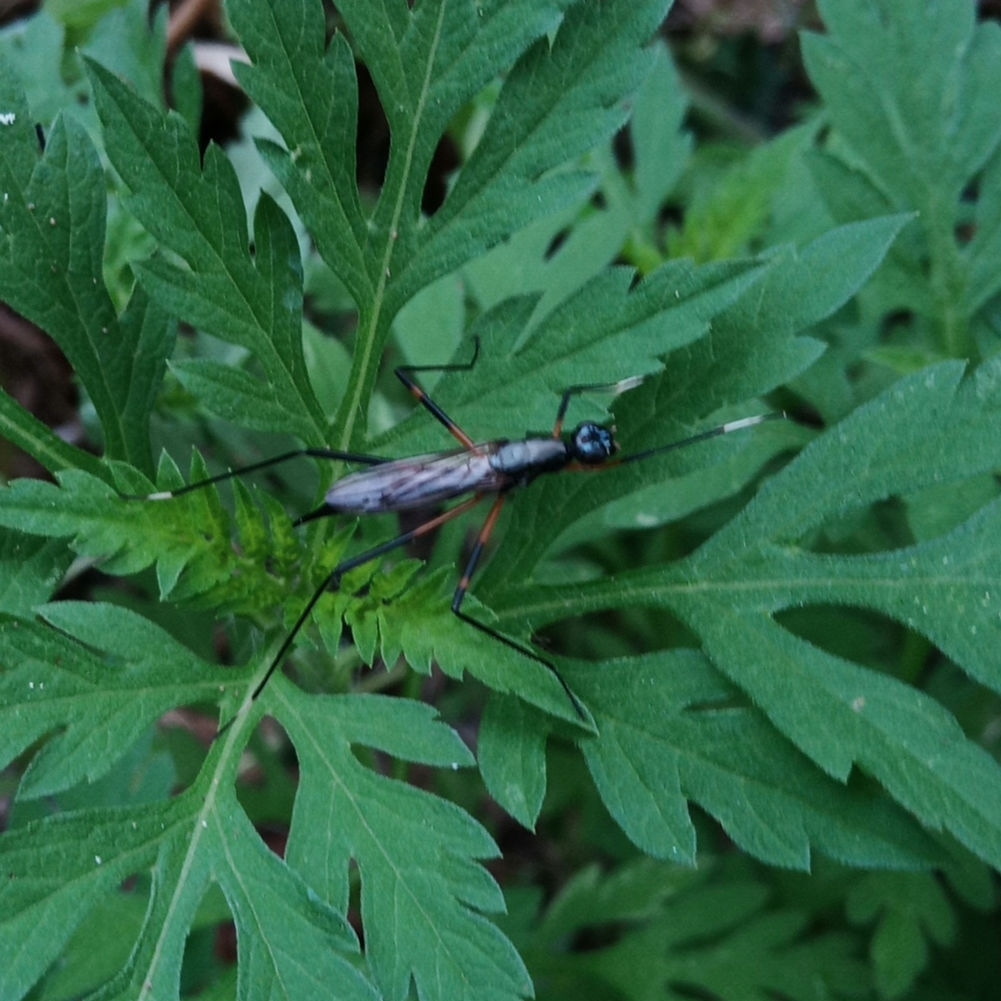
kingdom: Animalia
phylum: Arthropoda
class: Insecta
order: Diptera
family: Micropezidae
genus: Calobatina
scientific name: Calobatina geometra
